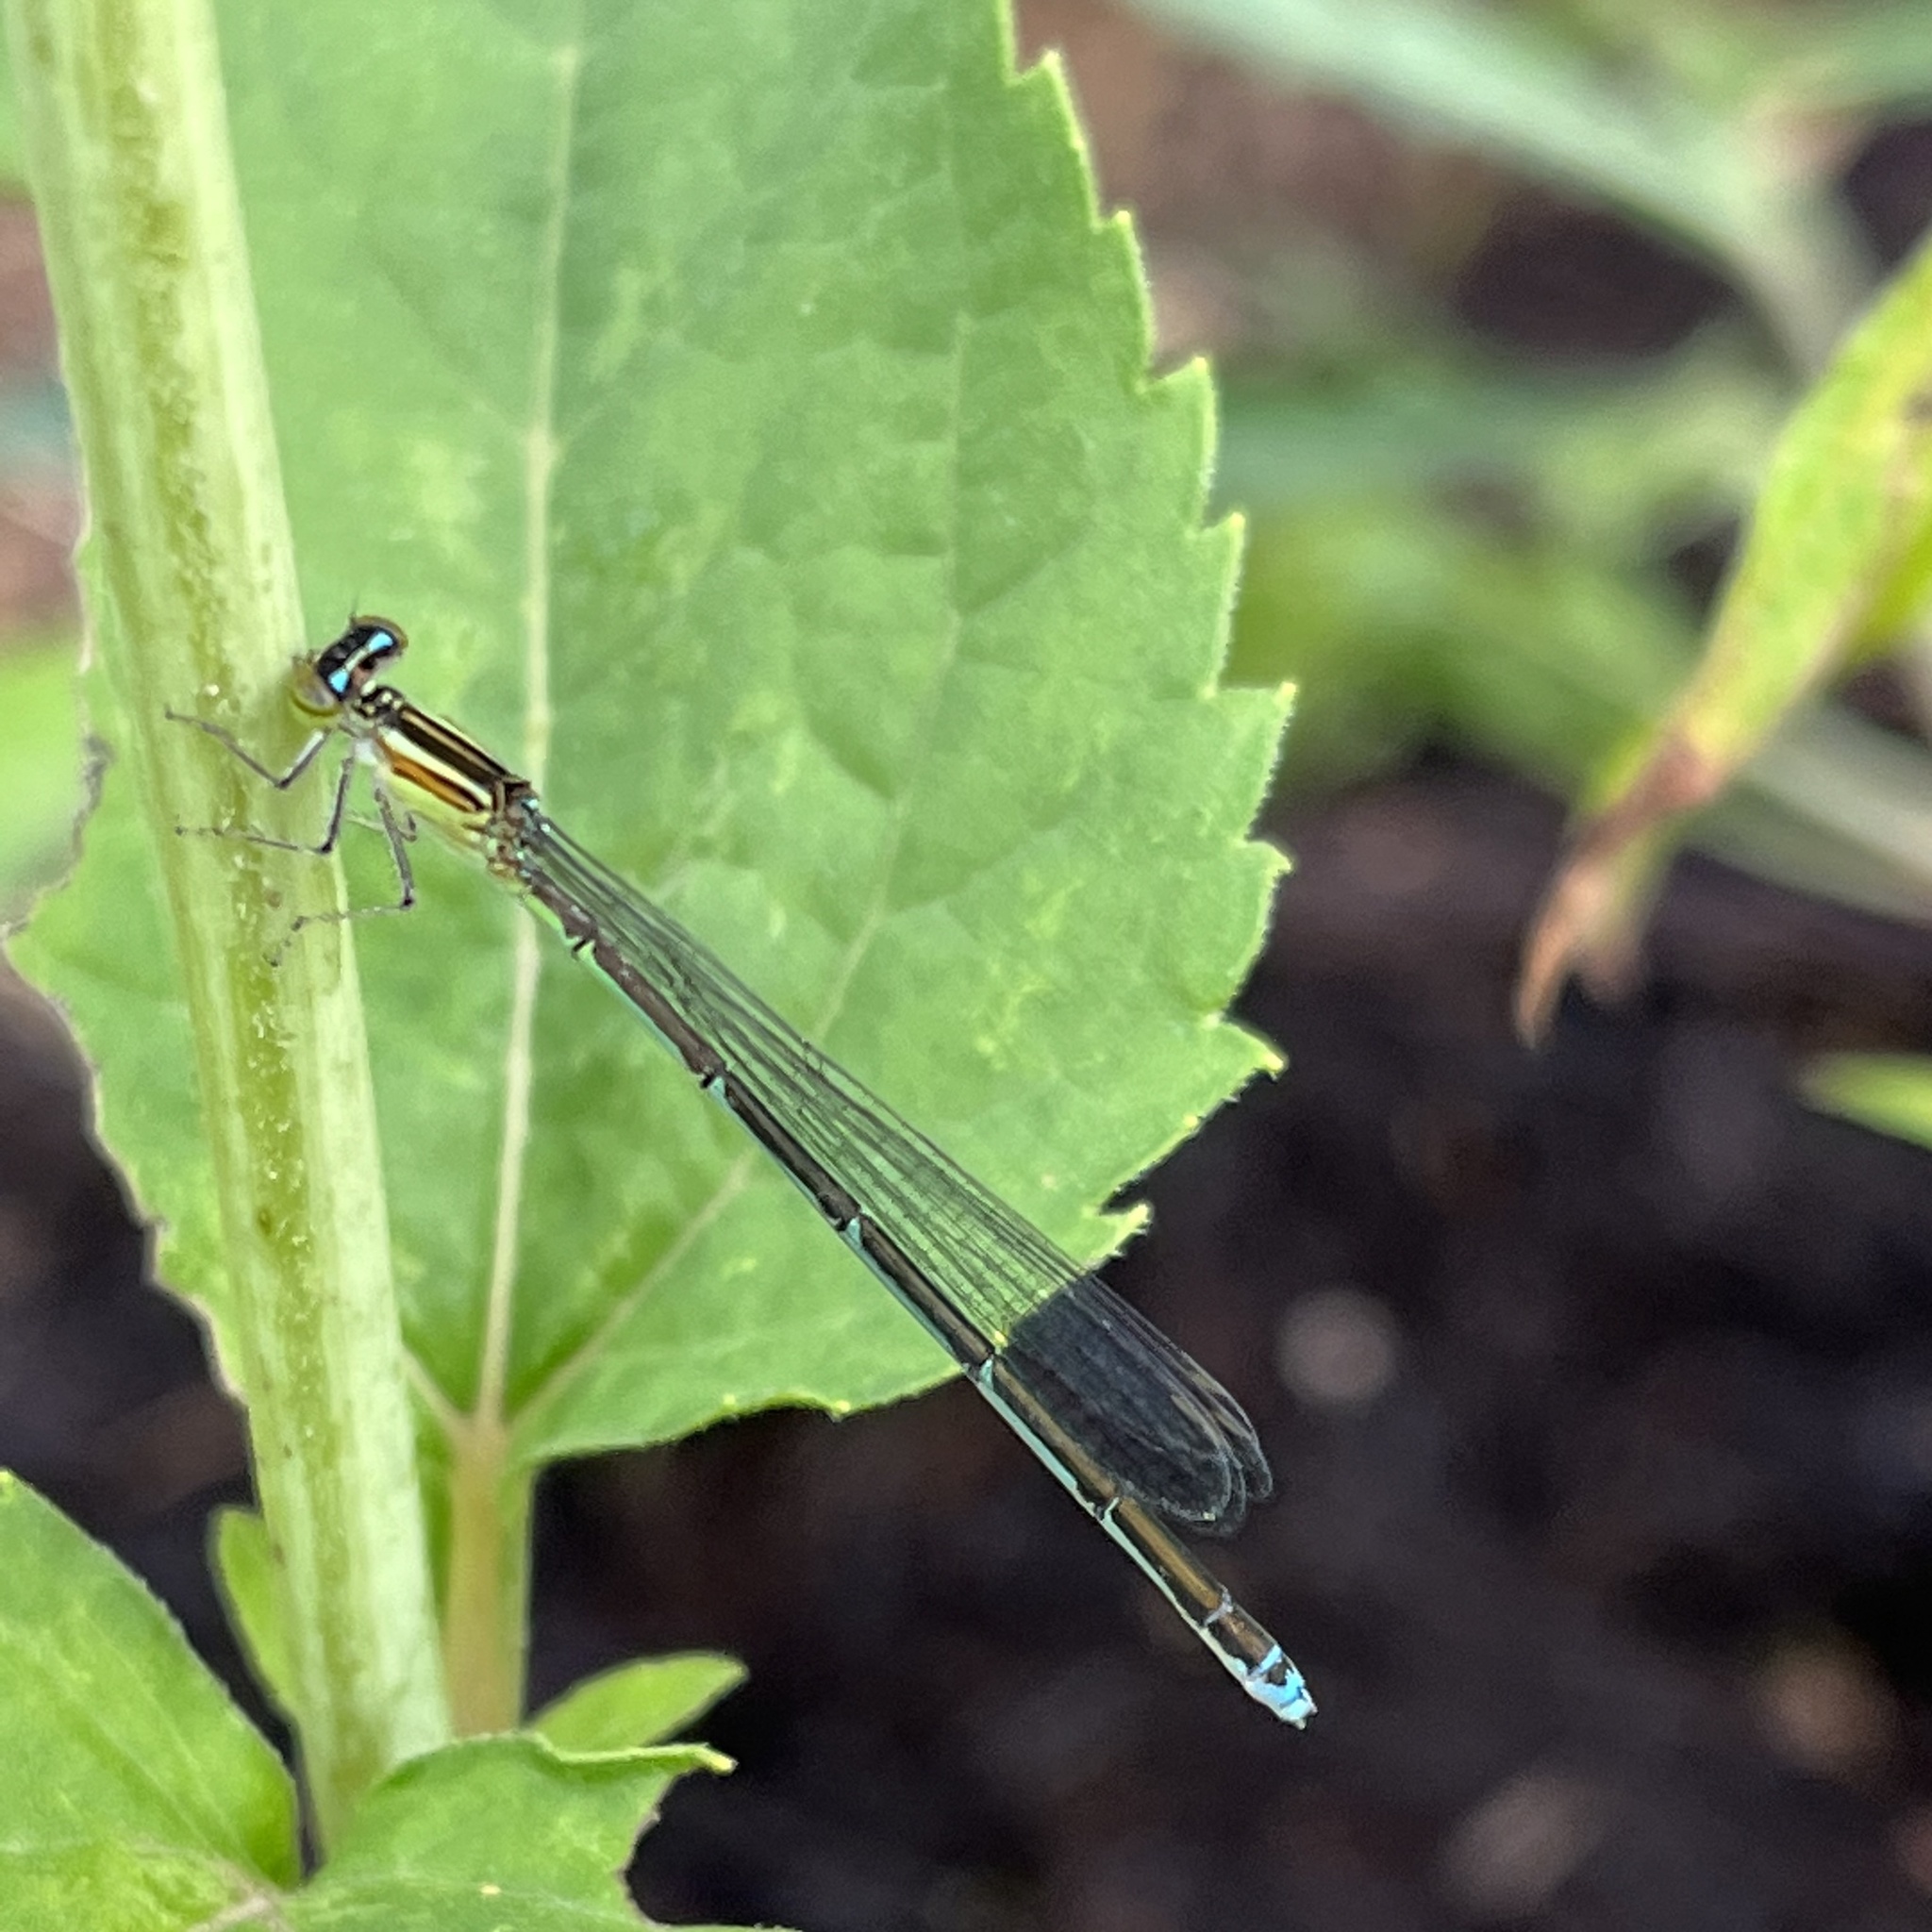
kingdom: Animalia
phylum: Arthropoda
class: Insecta
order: Odonata
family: Coenagrionidae
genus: Enallagma
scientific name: Enallagma exsulans
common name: Stream bluet
